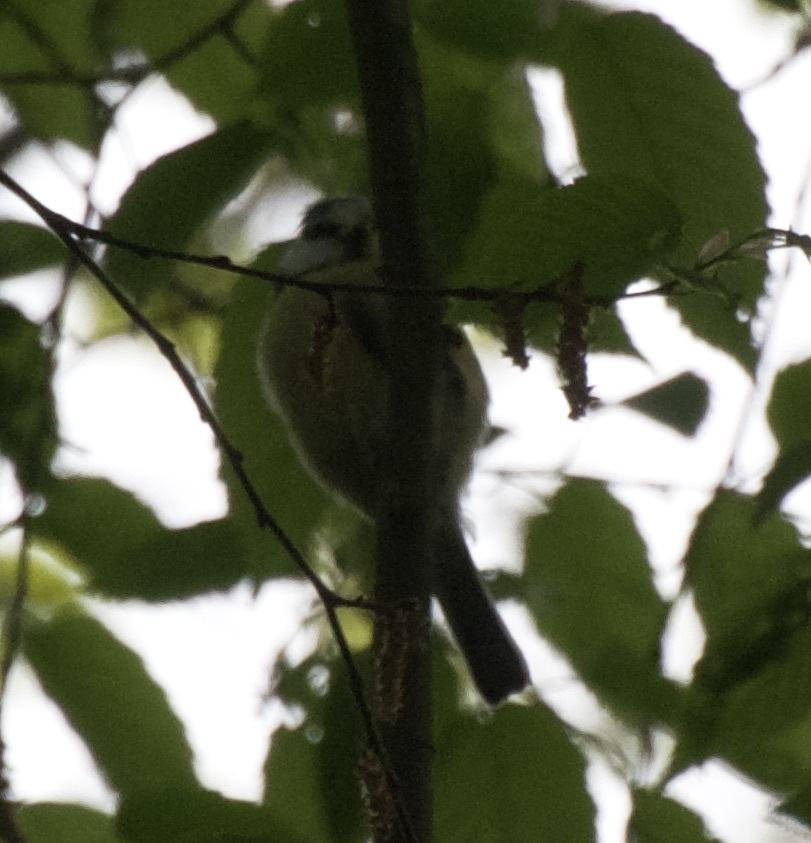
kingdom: Animalia
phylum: Chordata
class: Aves
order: Passeriformes
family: Paridae
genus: Cyanistes
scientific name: Cyanistes caeruleus
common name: Eurasian blue tit
